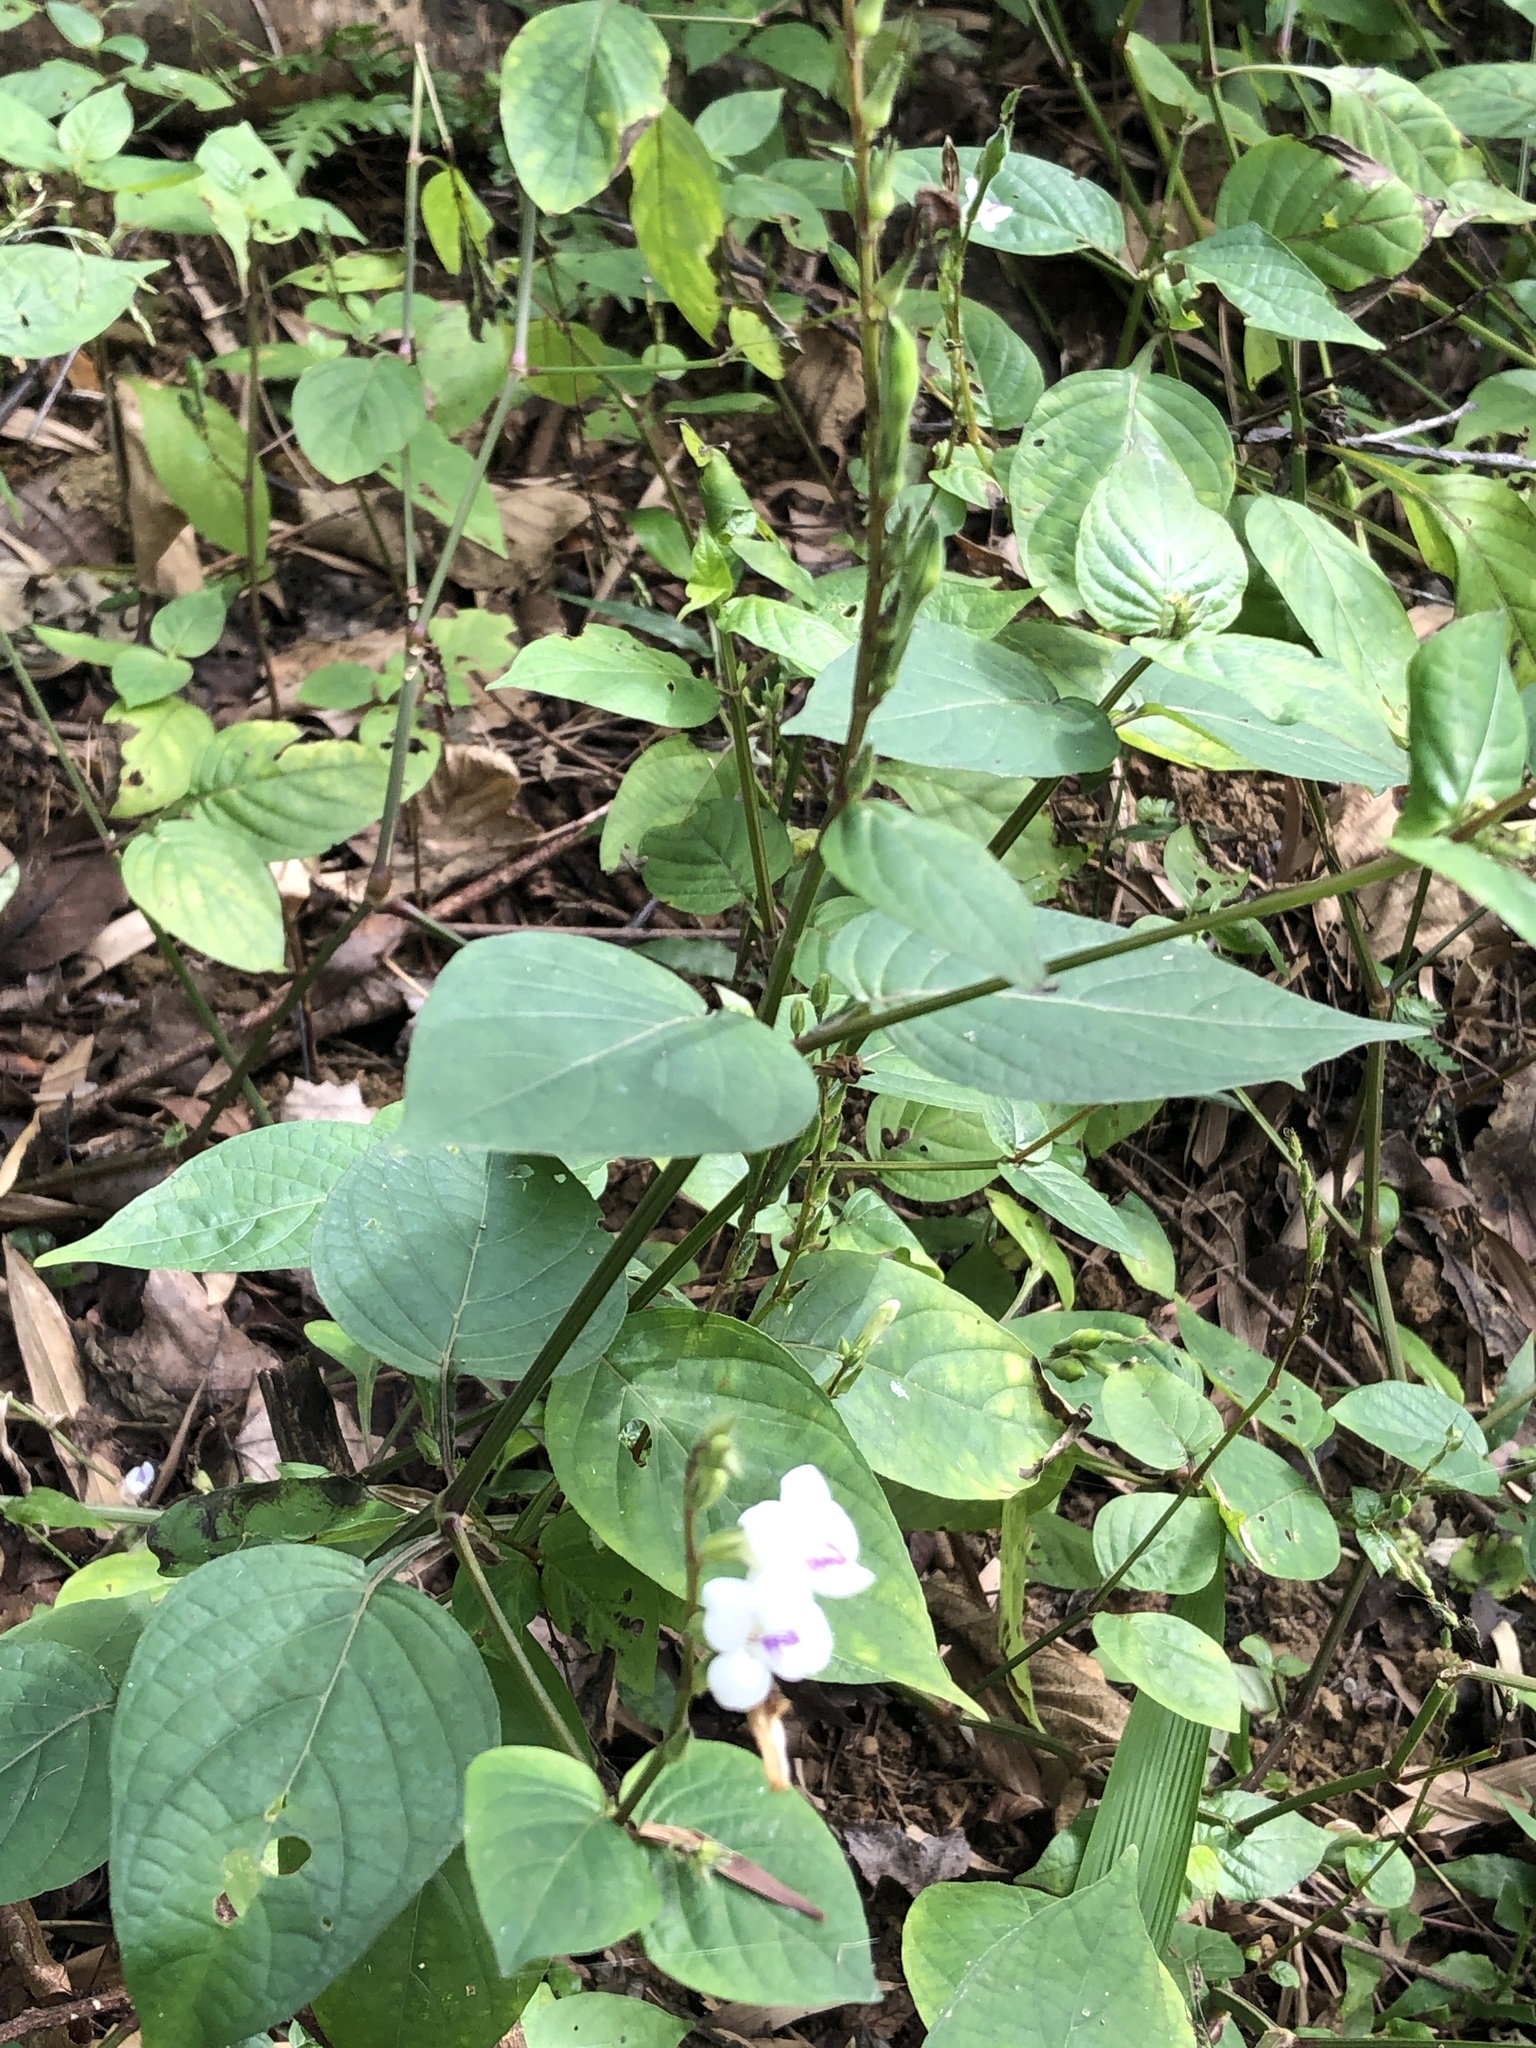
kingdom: Plantae
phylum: Tracheophyta
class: Magnoliopsida
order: Lamiales
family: Acanthaceae
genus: Asystasia
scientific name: Asystasia intrusa
